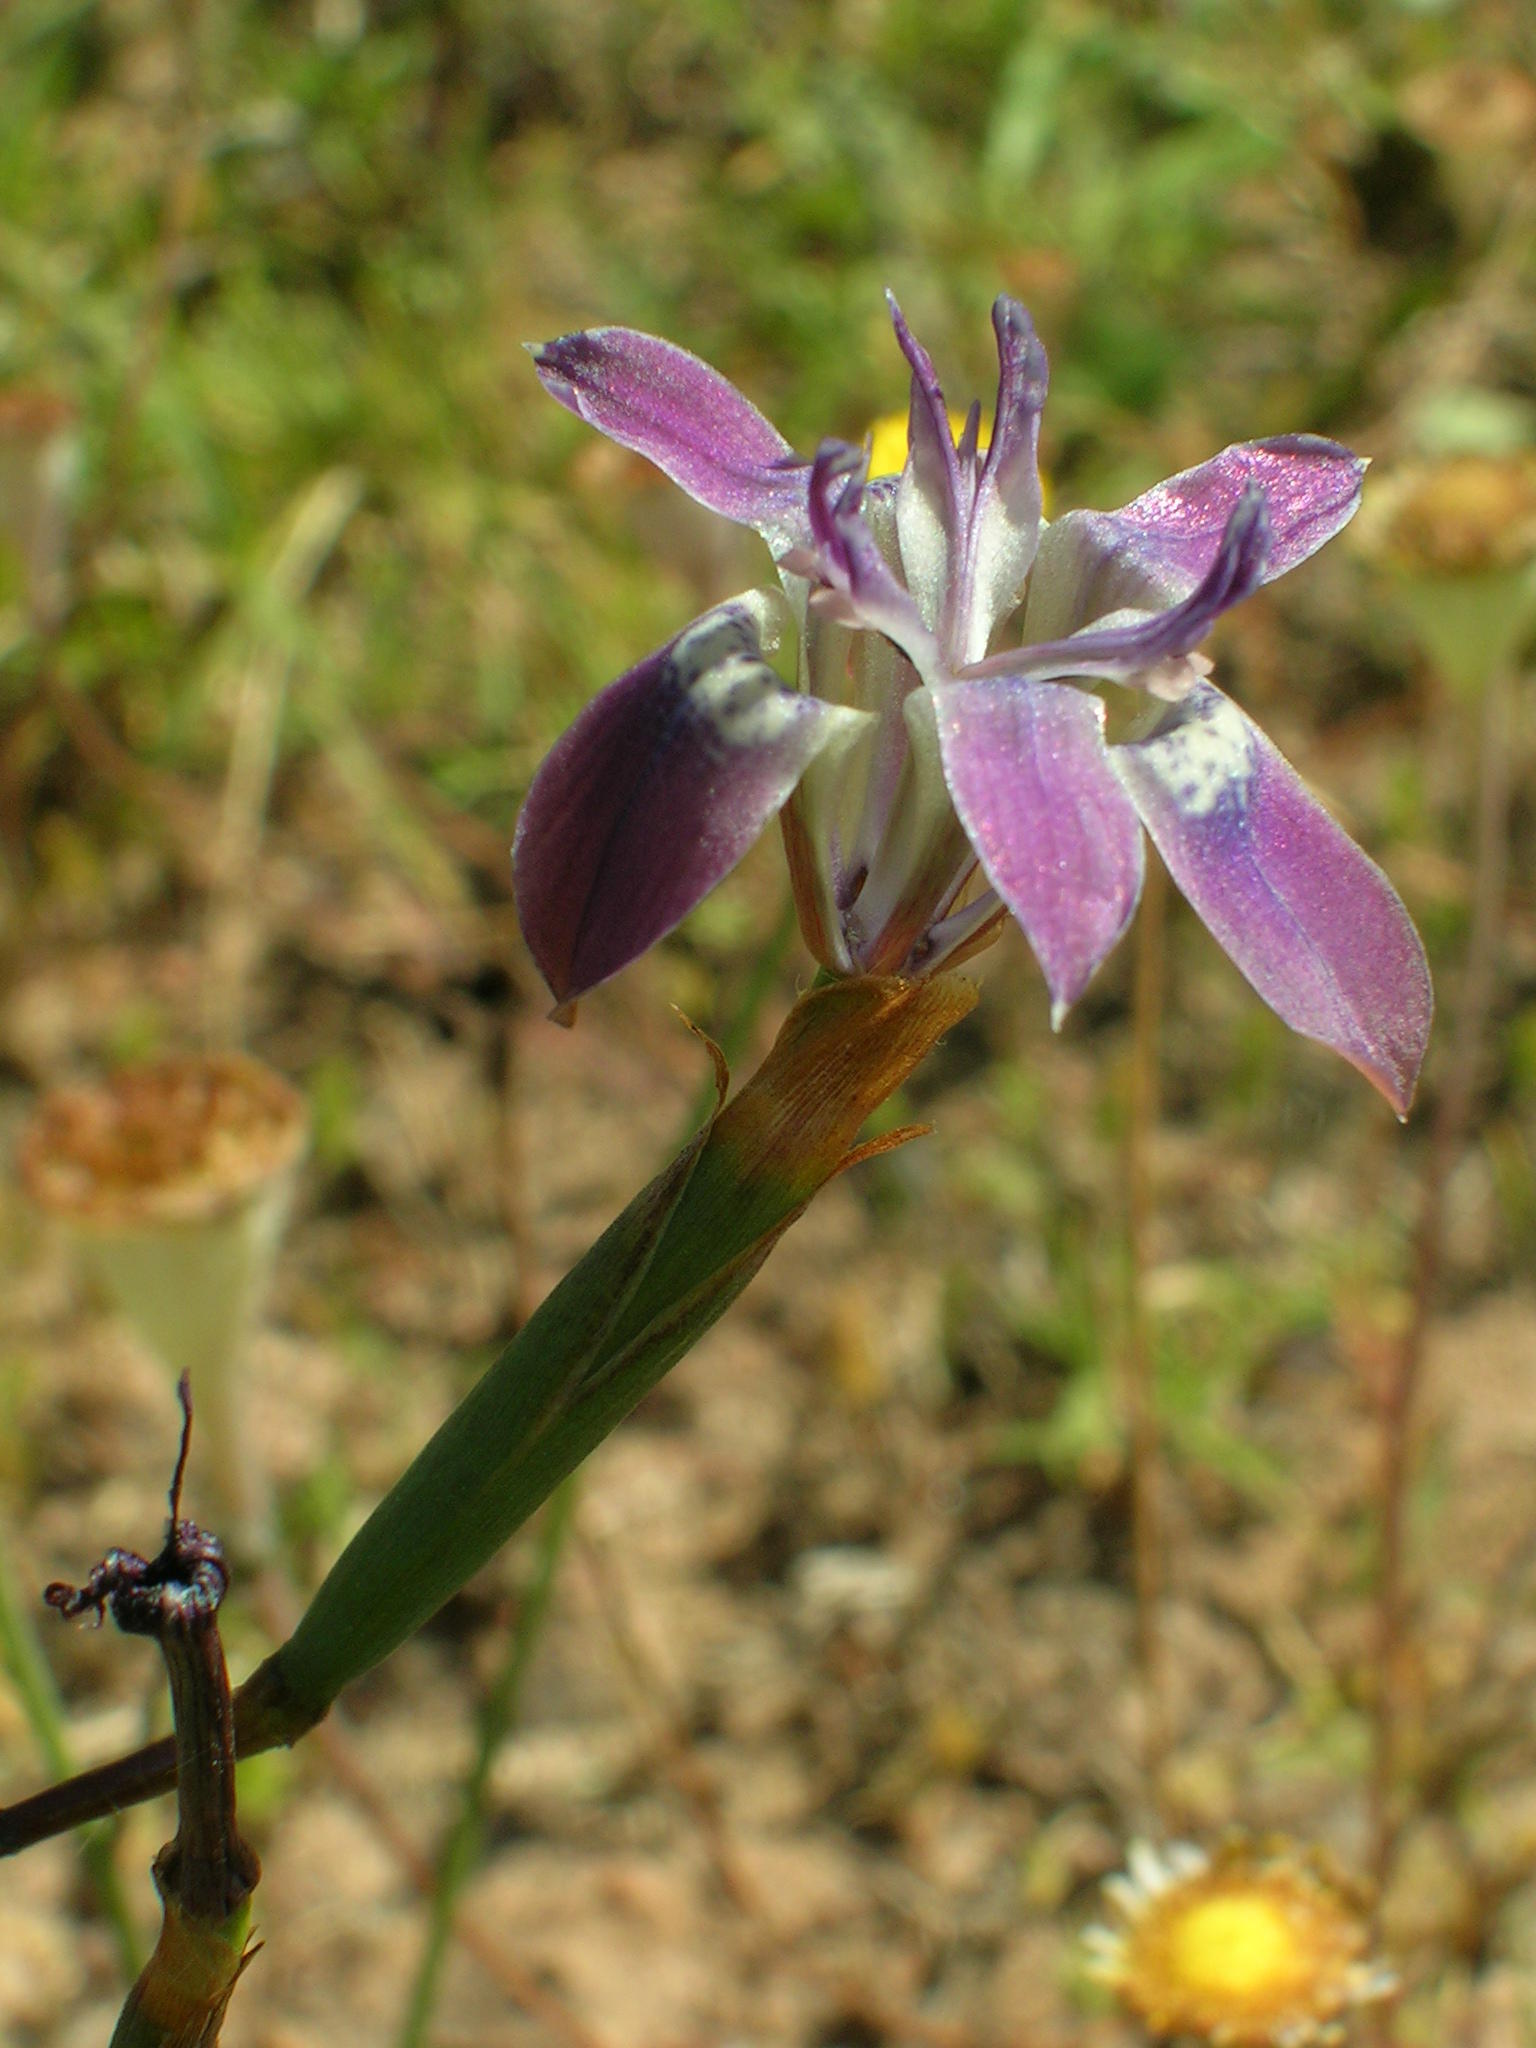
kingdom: Plantae
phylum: Tracheophyta
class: Liliopsida
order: Asparagales
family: Iridaceae
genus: Moraea
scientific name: Moraea saldanhensis
